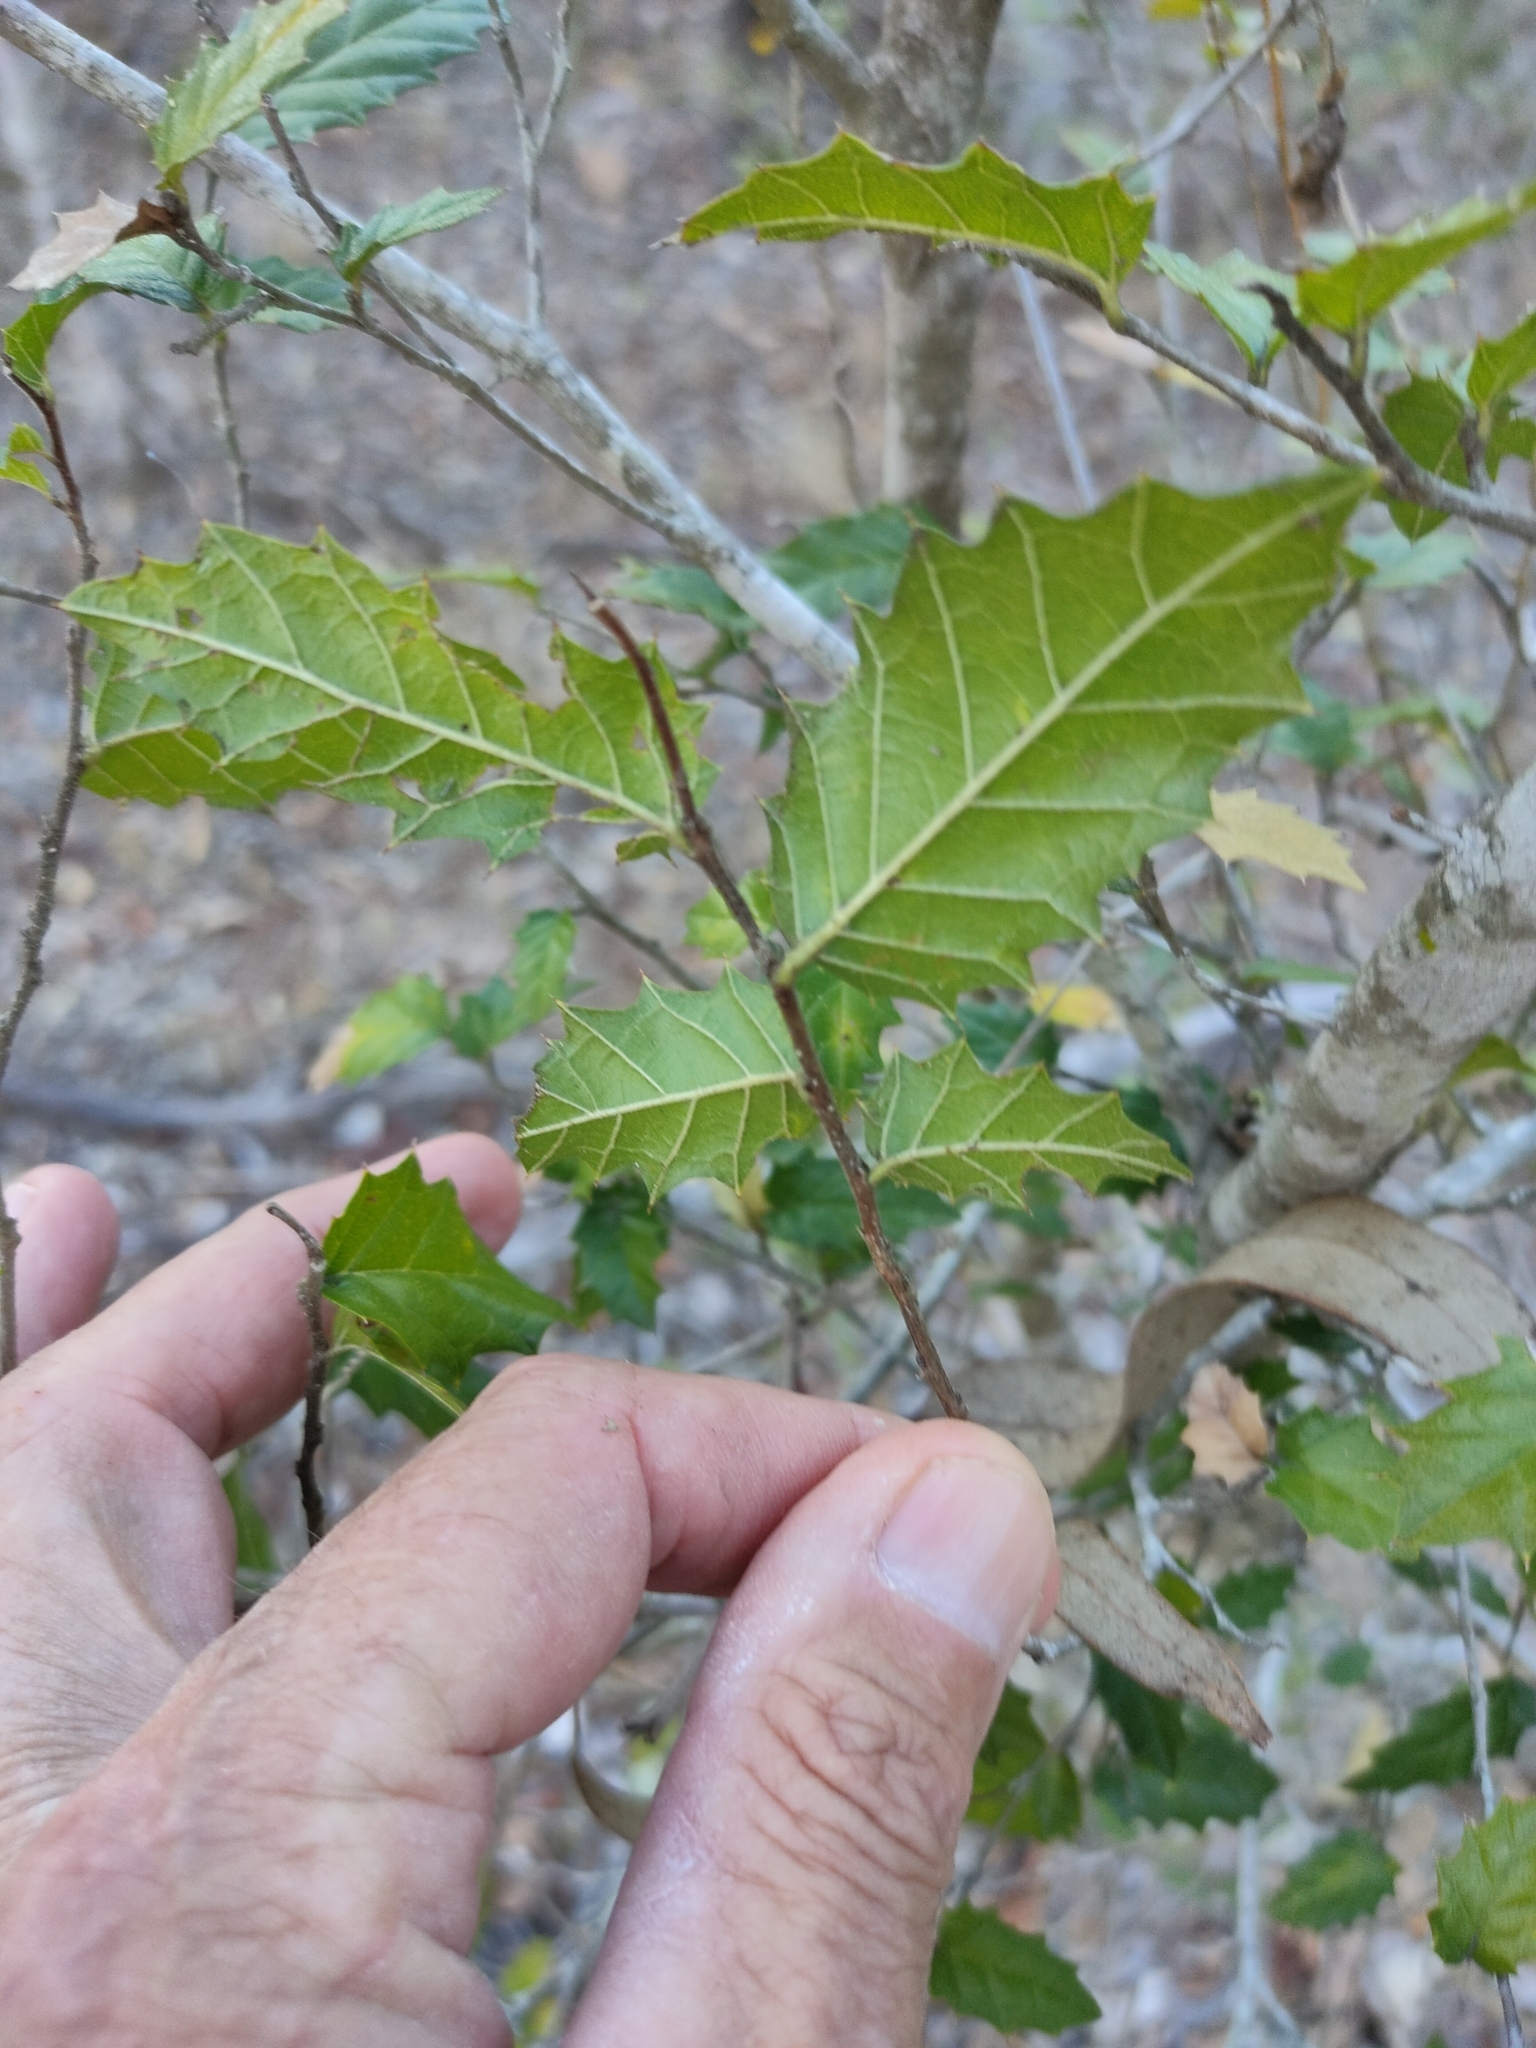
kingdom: Plantae
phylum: Tracheophyta
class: Magnoliopsida
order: Rosales
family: Cannabaceae
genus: Aphananthe
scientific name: Aphananthe philippinensis
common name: Wild holly
